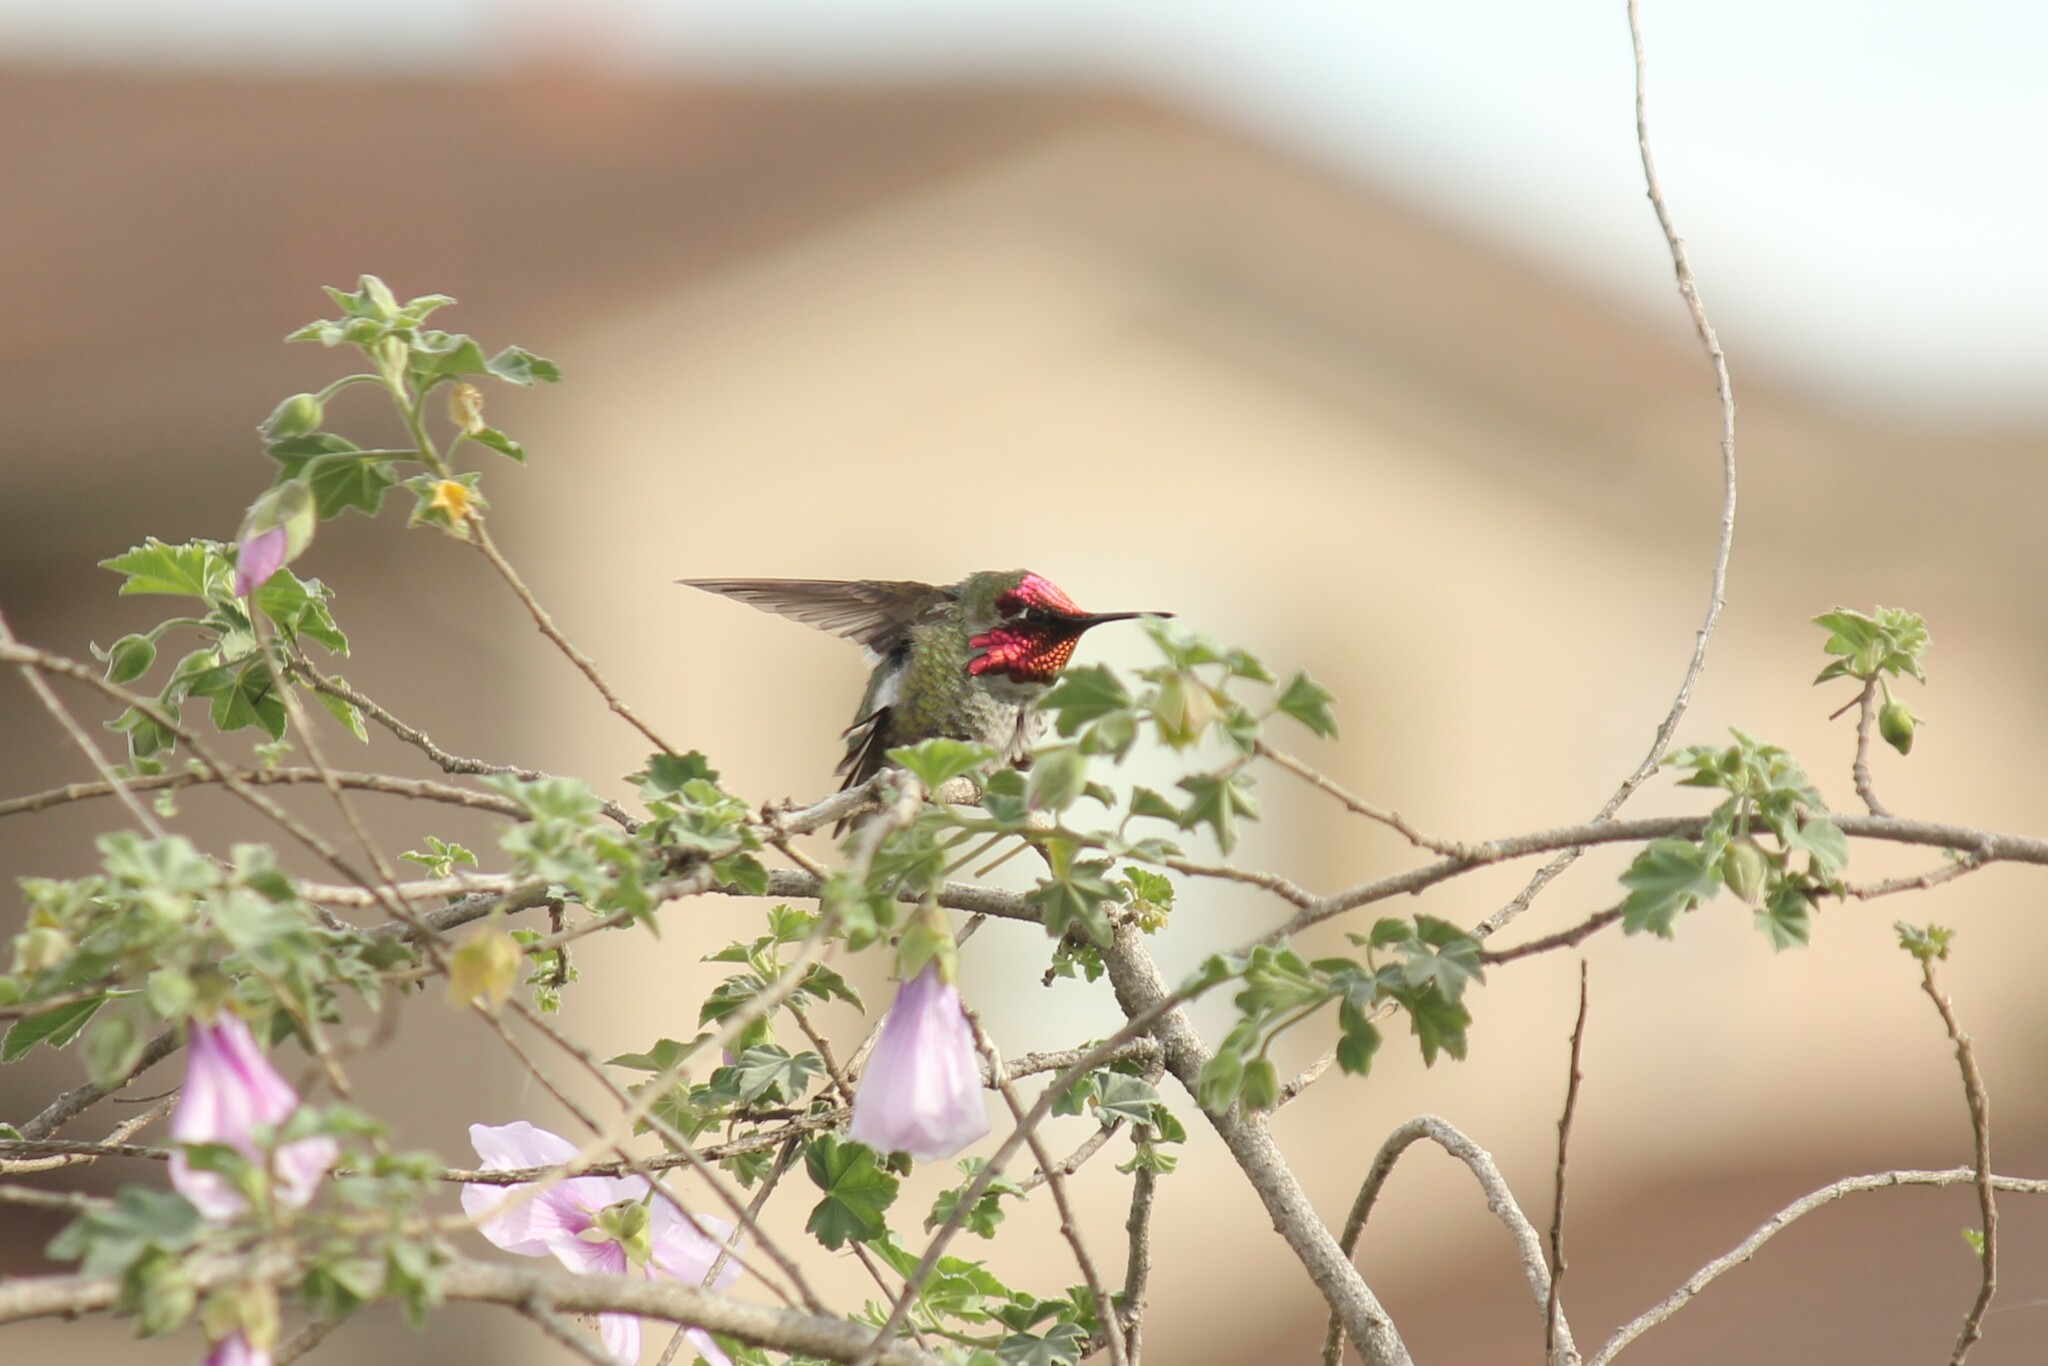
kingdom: Animalia
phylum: Chordata
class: Aves
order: Apodiformes
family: Trochilidae
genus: Calypte
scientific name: Calypte anna
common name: Anna's hummingbird
